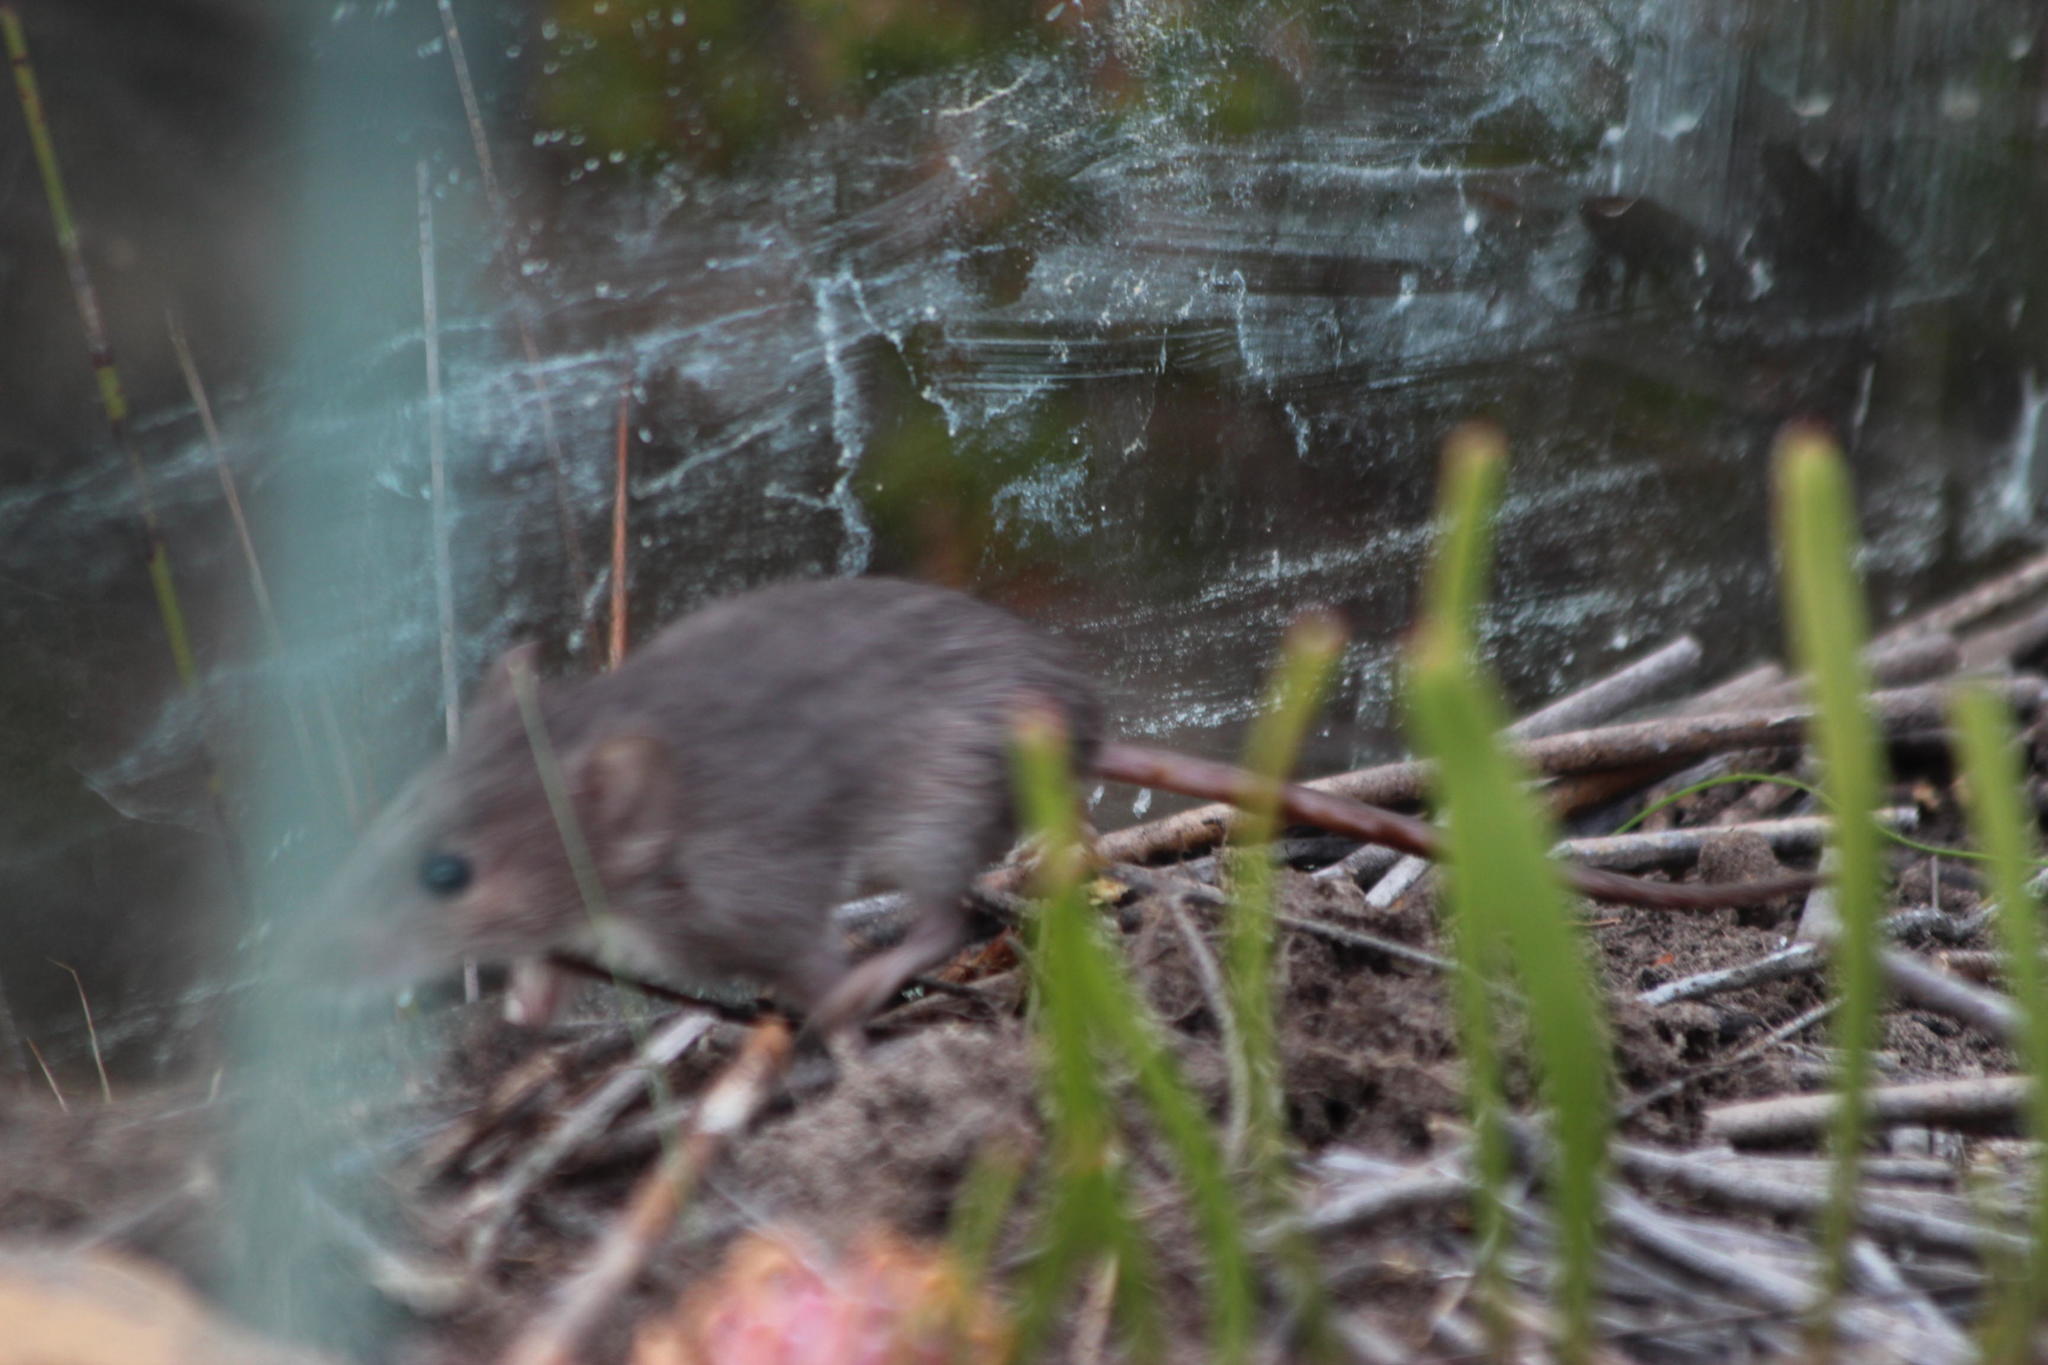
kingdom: Animalia
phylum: Chordata
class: Mammalia
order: Rodentia
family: Muridae
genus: Acomys
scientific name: Acomys subspinosus
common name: Cape spiny mouse
